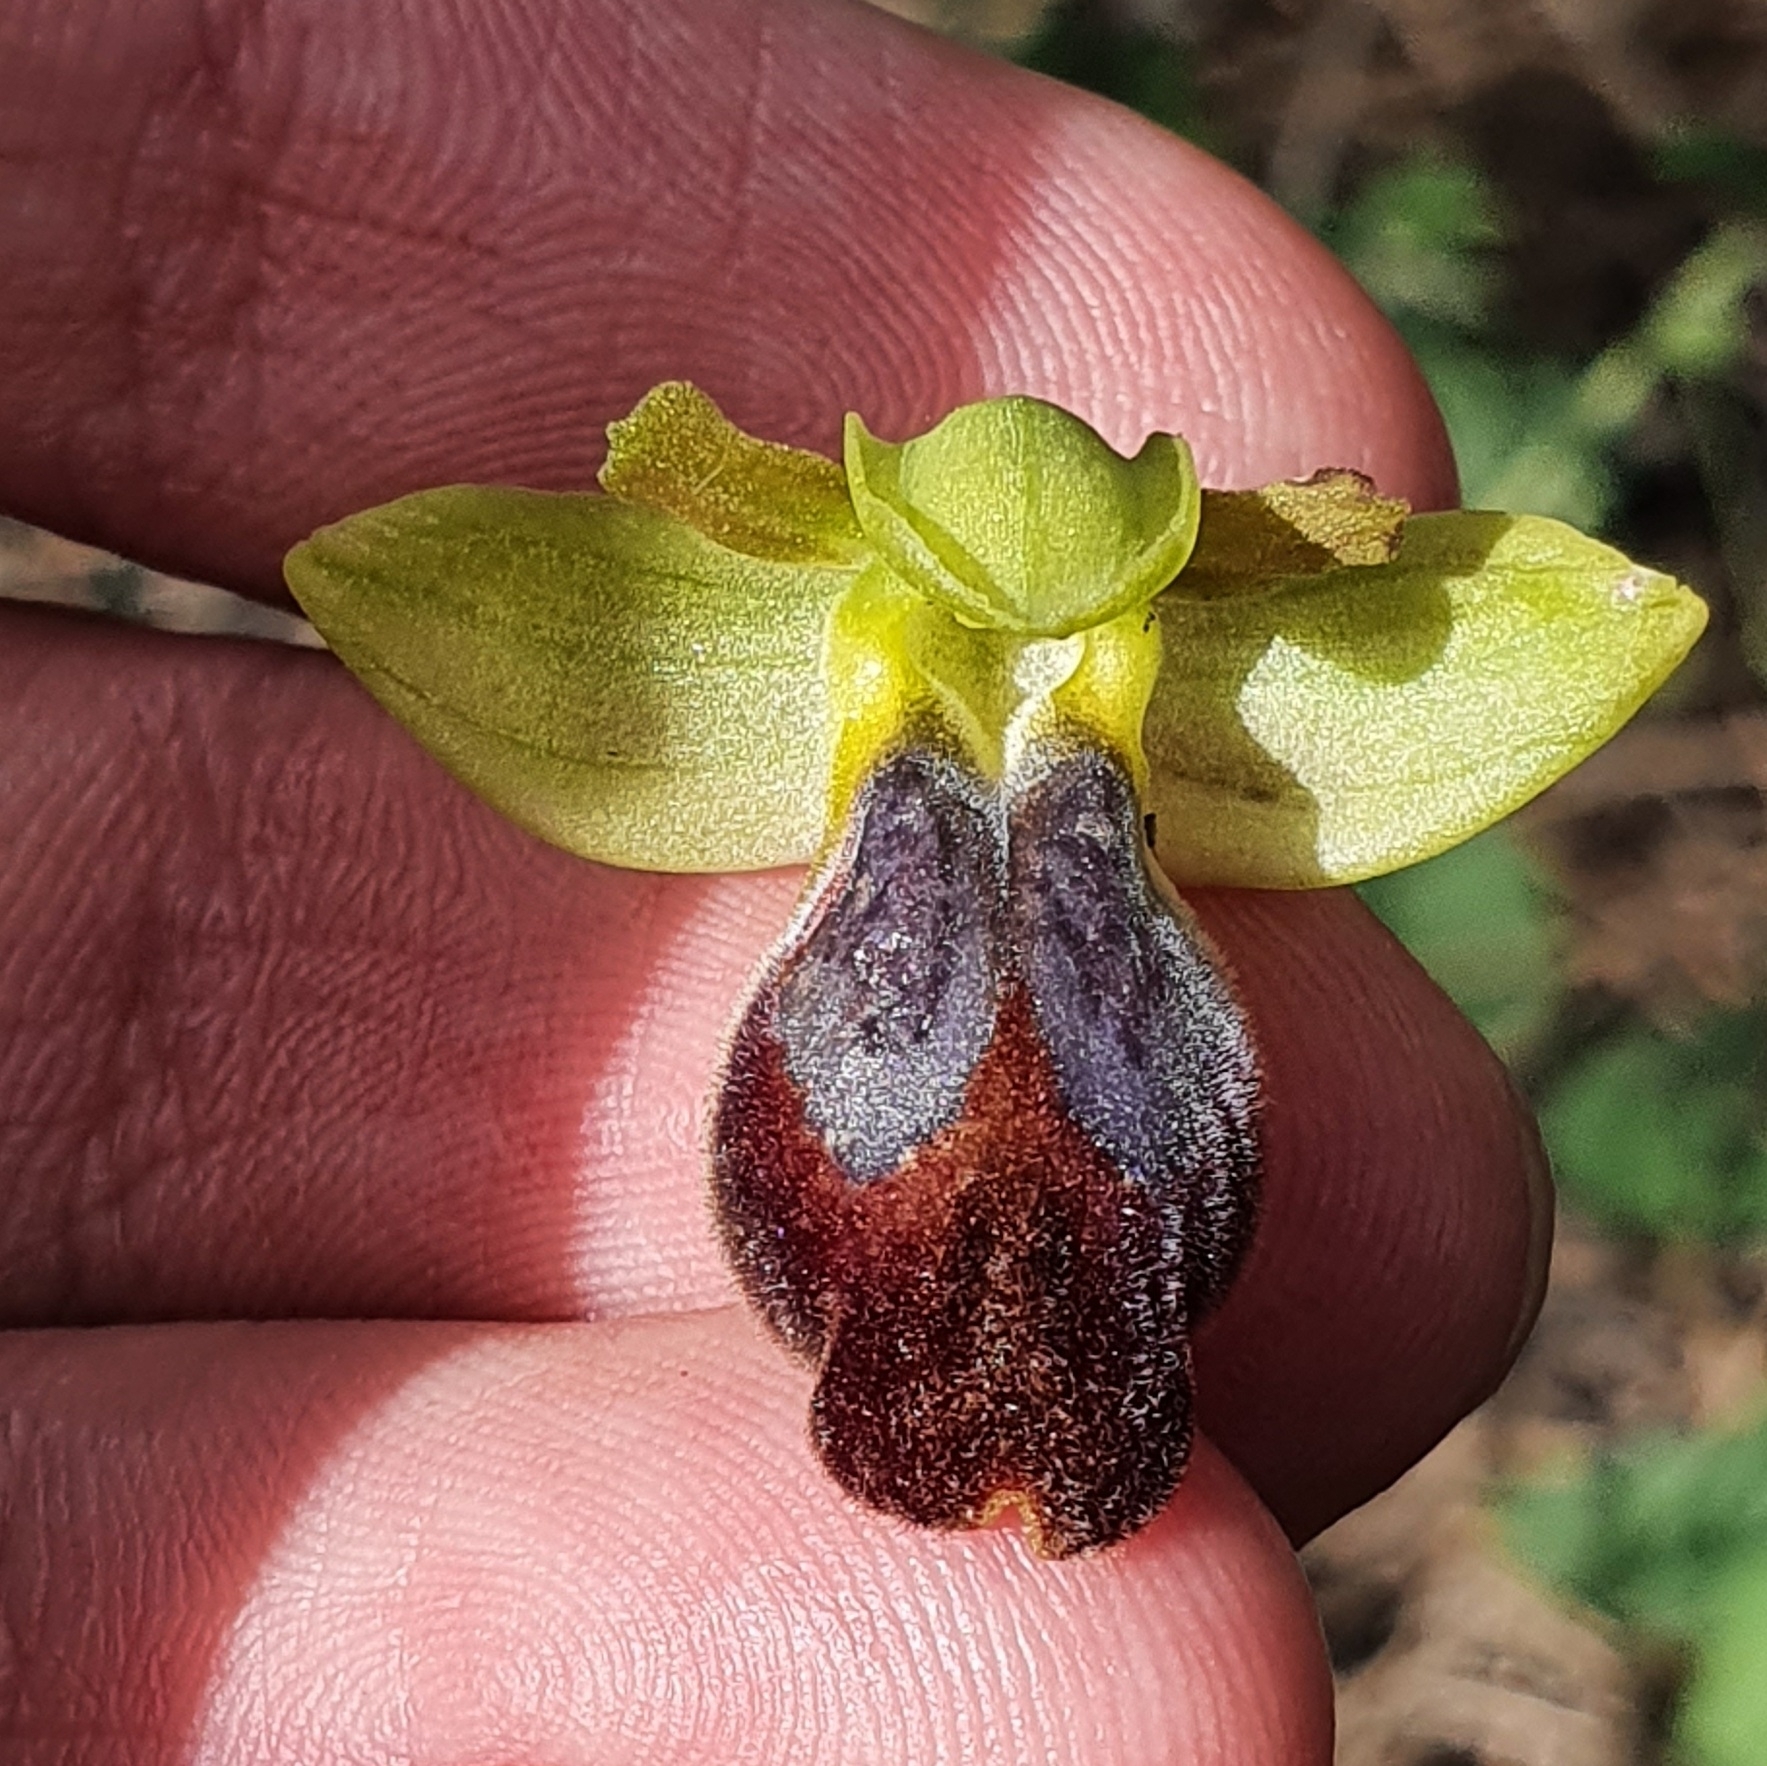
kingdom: Plantae
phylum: Tracheophyta
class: Liliopsida
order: Asparagales
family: Orchidaceae
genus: Ophrys
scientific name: Ophrys fusca
